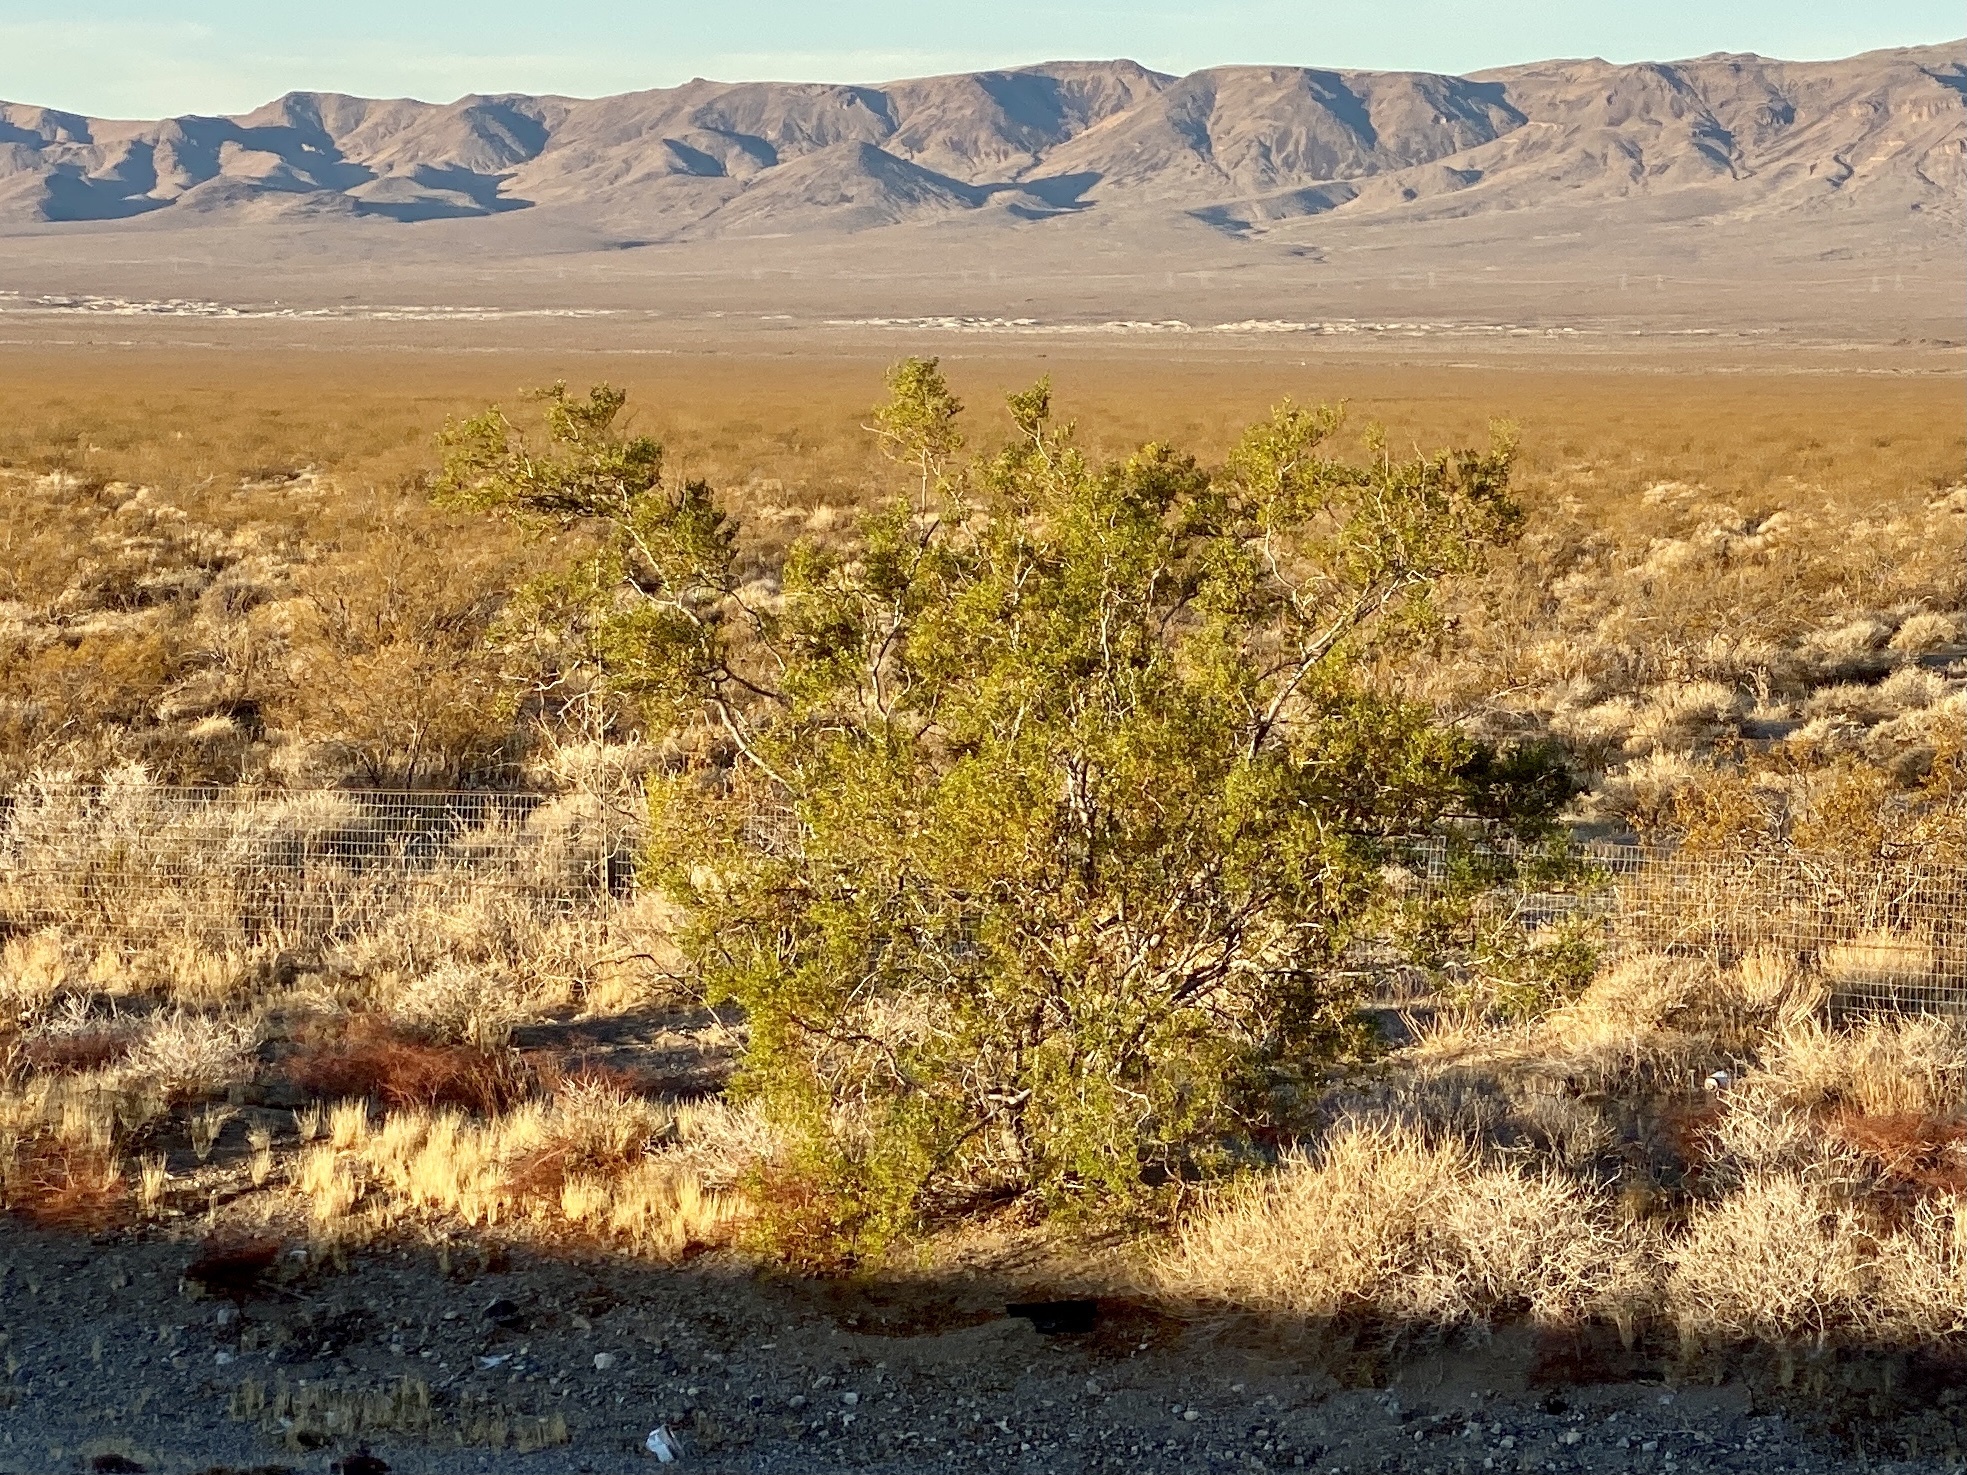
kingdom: Plantae
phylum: Tracheophyta
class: Magnoliopsida
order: Zygophyllales
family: Zygophyllaceae
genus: Larrea
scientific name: Larrea tridentata
